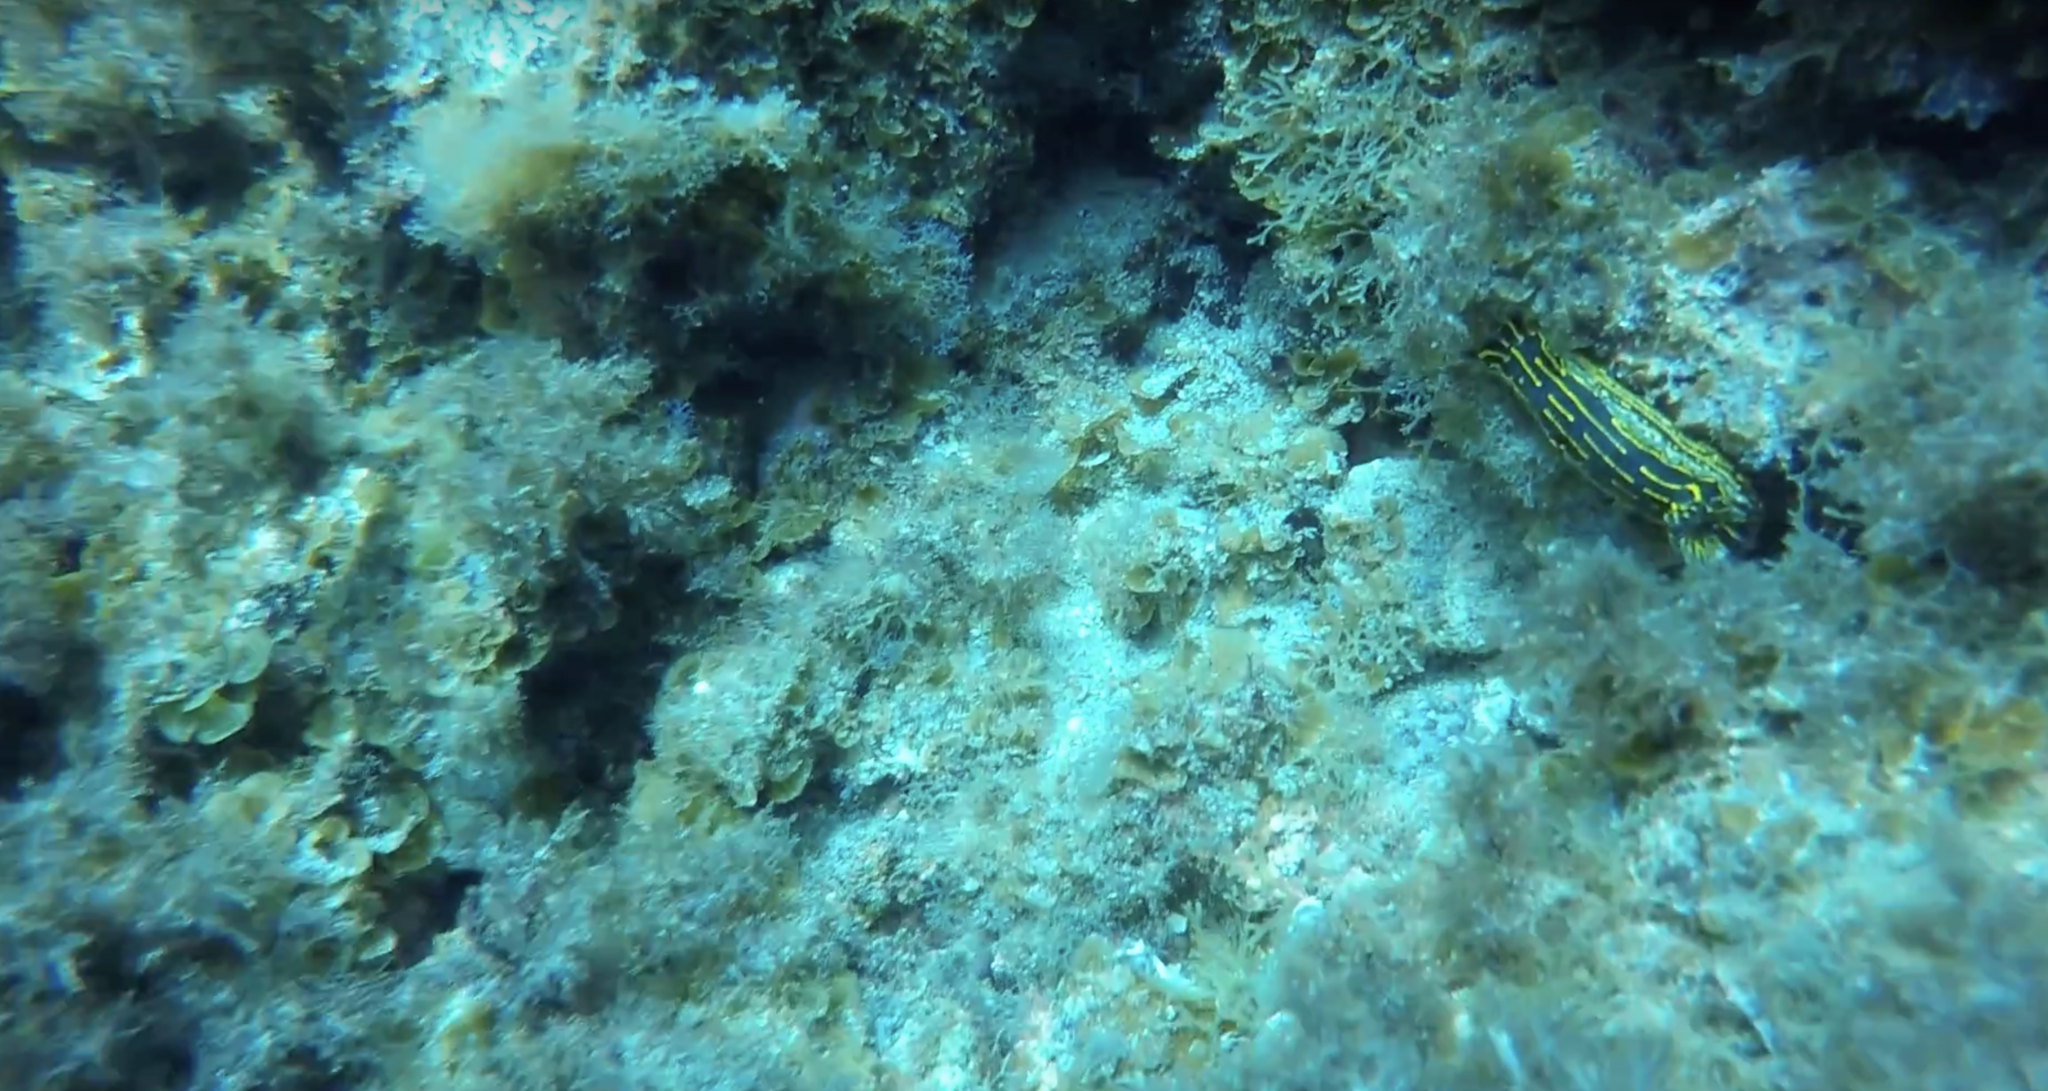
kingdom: Animalia
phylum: Mollusca
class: Gastropoda
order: Nudibranchia
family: Chromodorididae
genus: Felimare
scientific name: Felimare picta
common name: Giant doris
